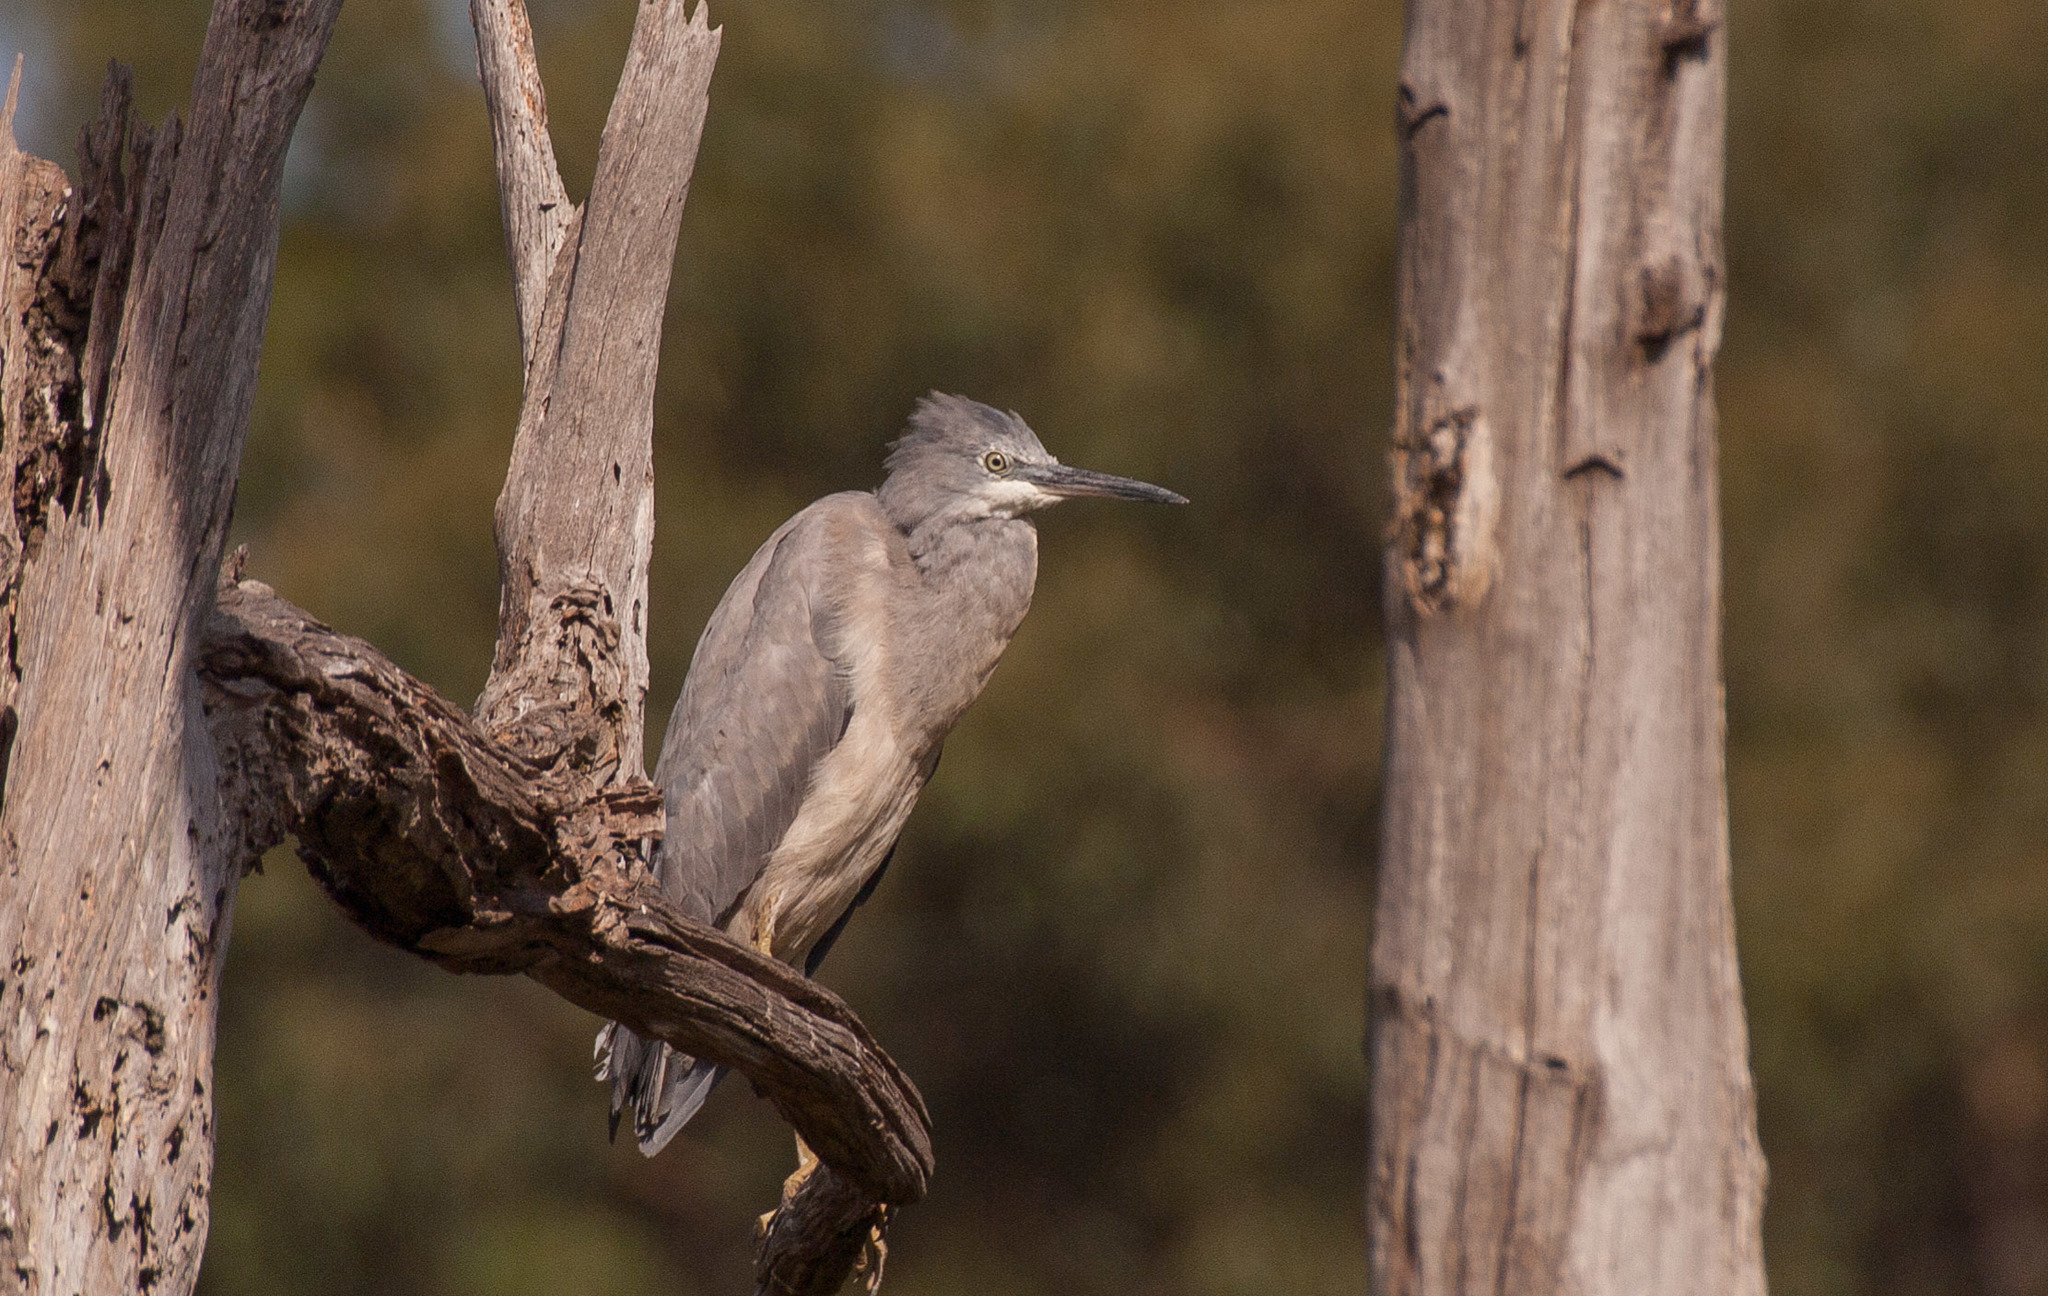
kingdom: Animalia
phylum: Chordata
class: Aves
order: Pelecaniformes
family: Ardeidae
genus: Egretta
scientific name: Egretta novaehollandiae
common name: White-faced heron
